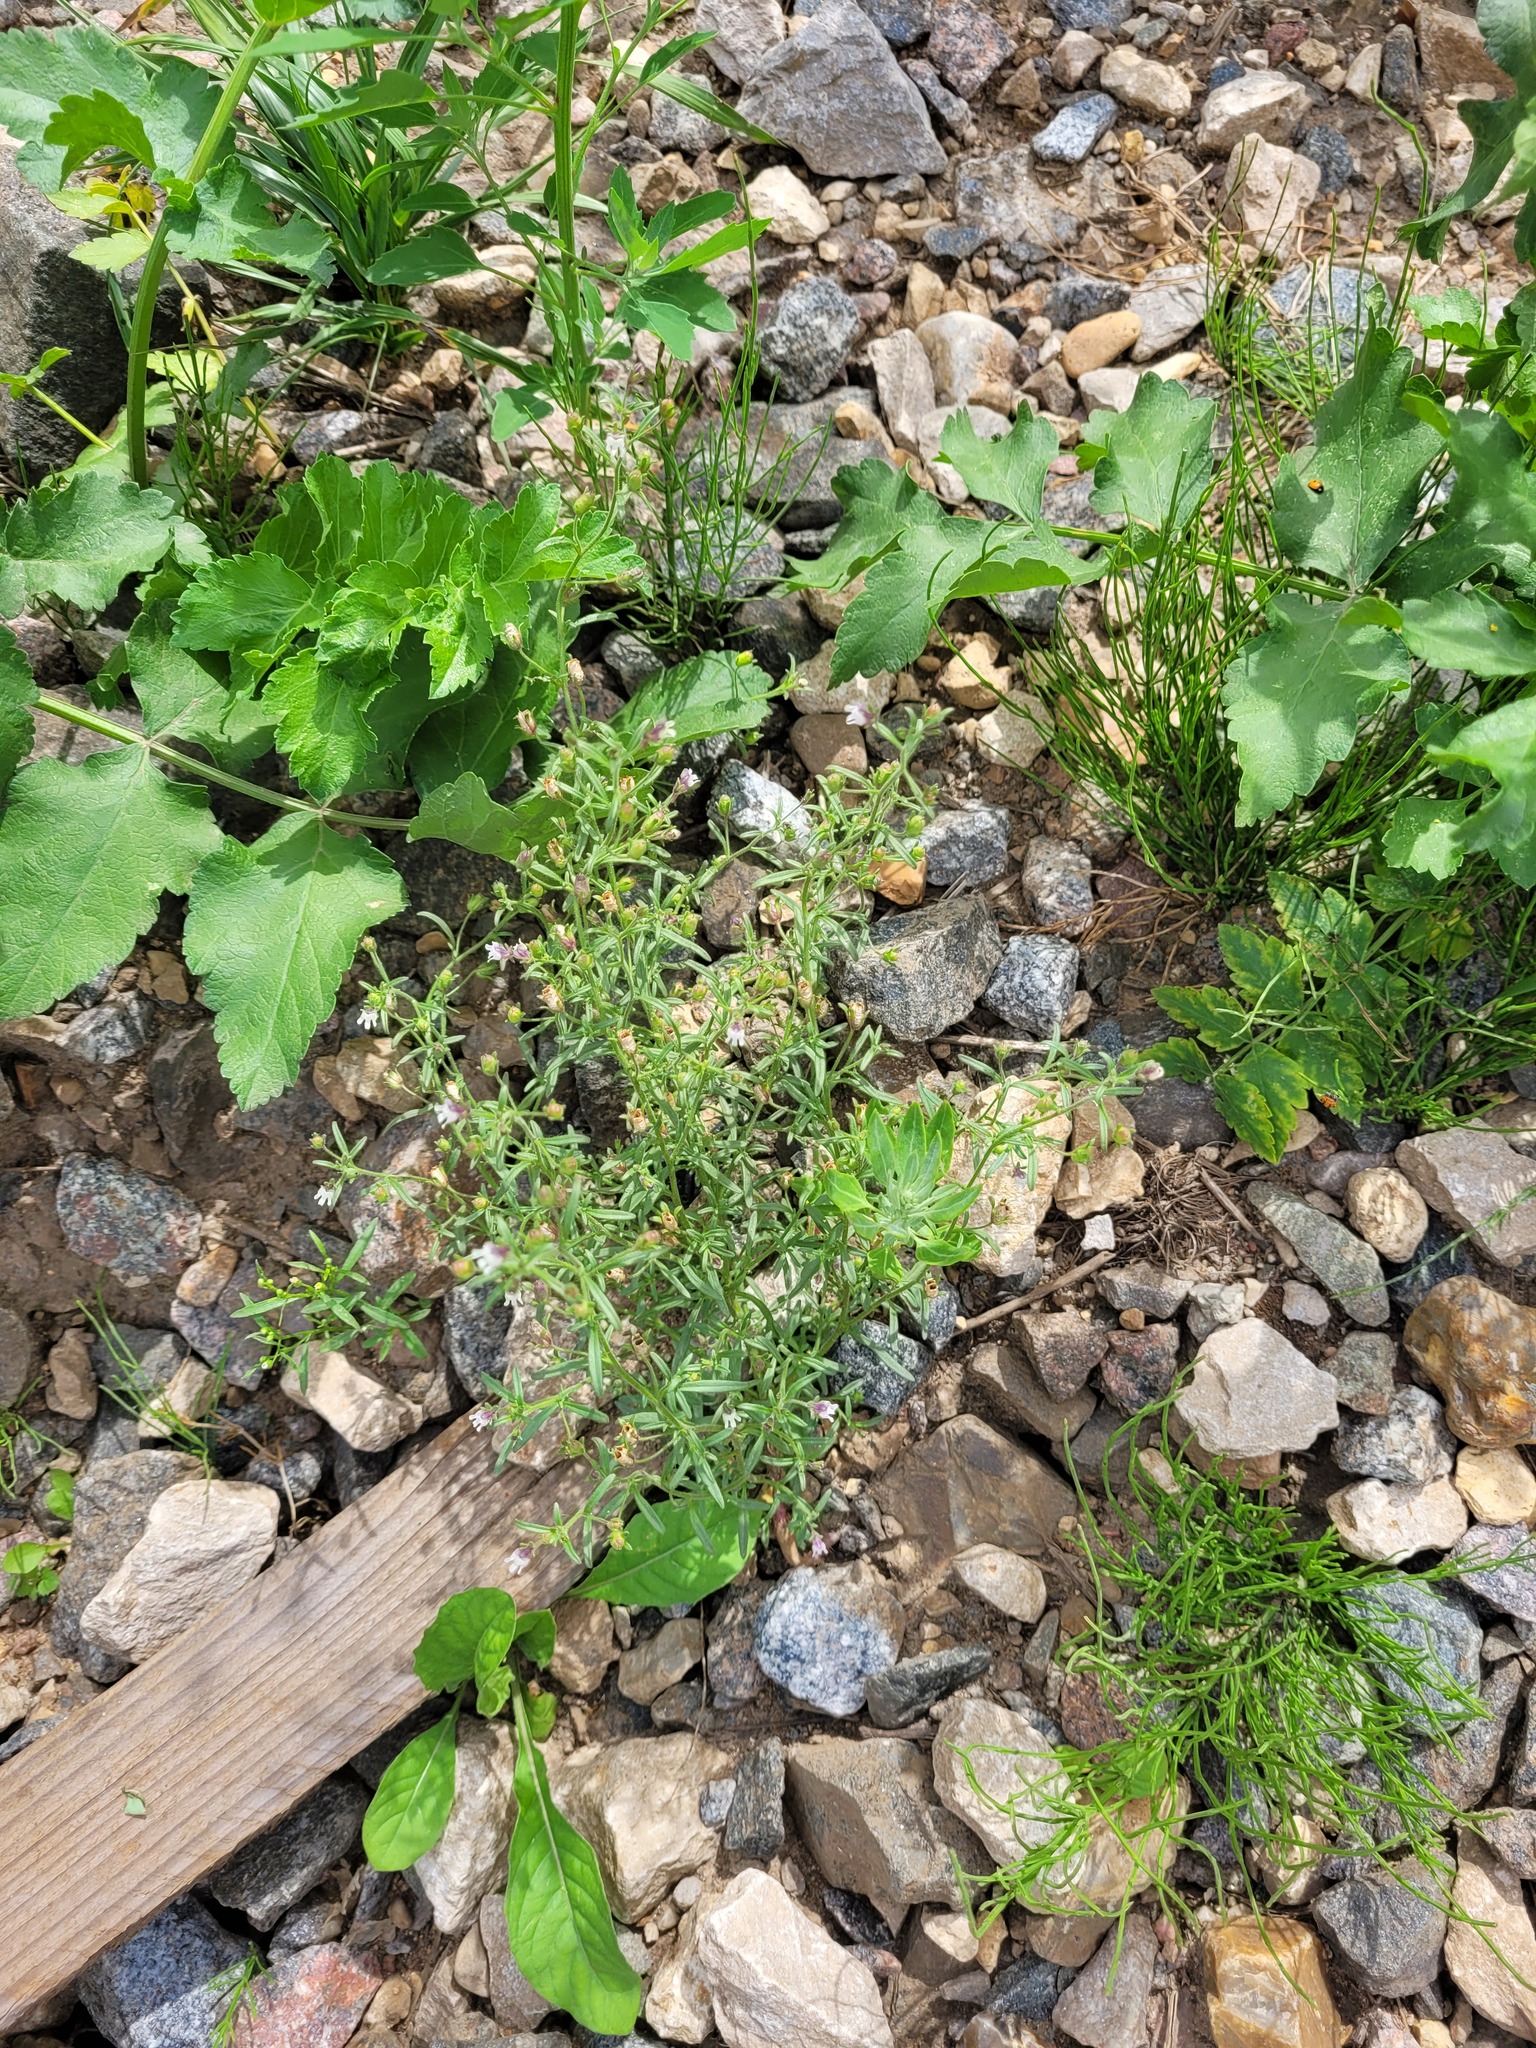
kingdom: Plantae
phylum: Tracheophyta
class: Magnoliopsida
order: Lamiales
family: Plantaginaceae
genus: Chaenorhinum
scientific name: Chaenorhinum minus
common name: Dwarf snapdragon
